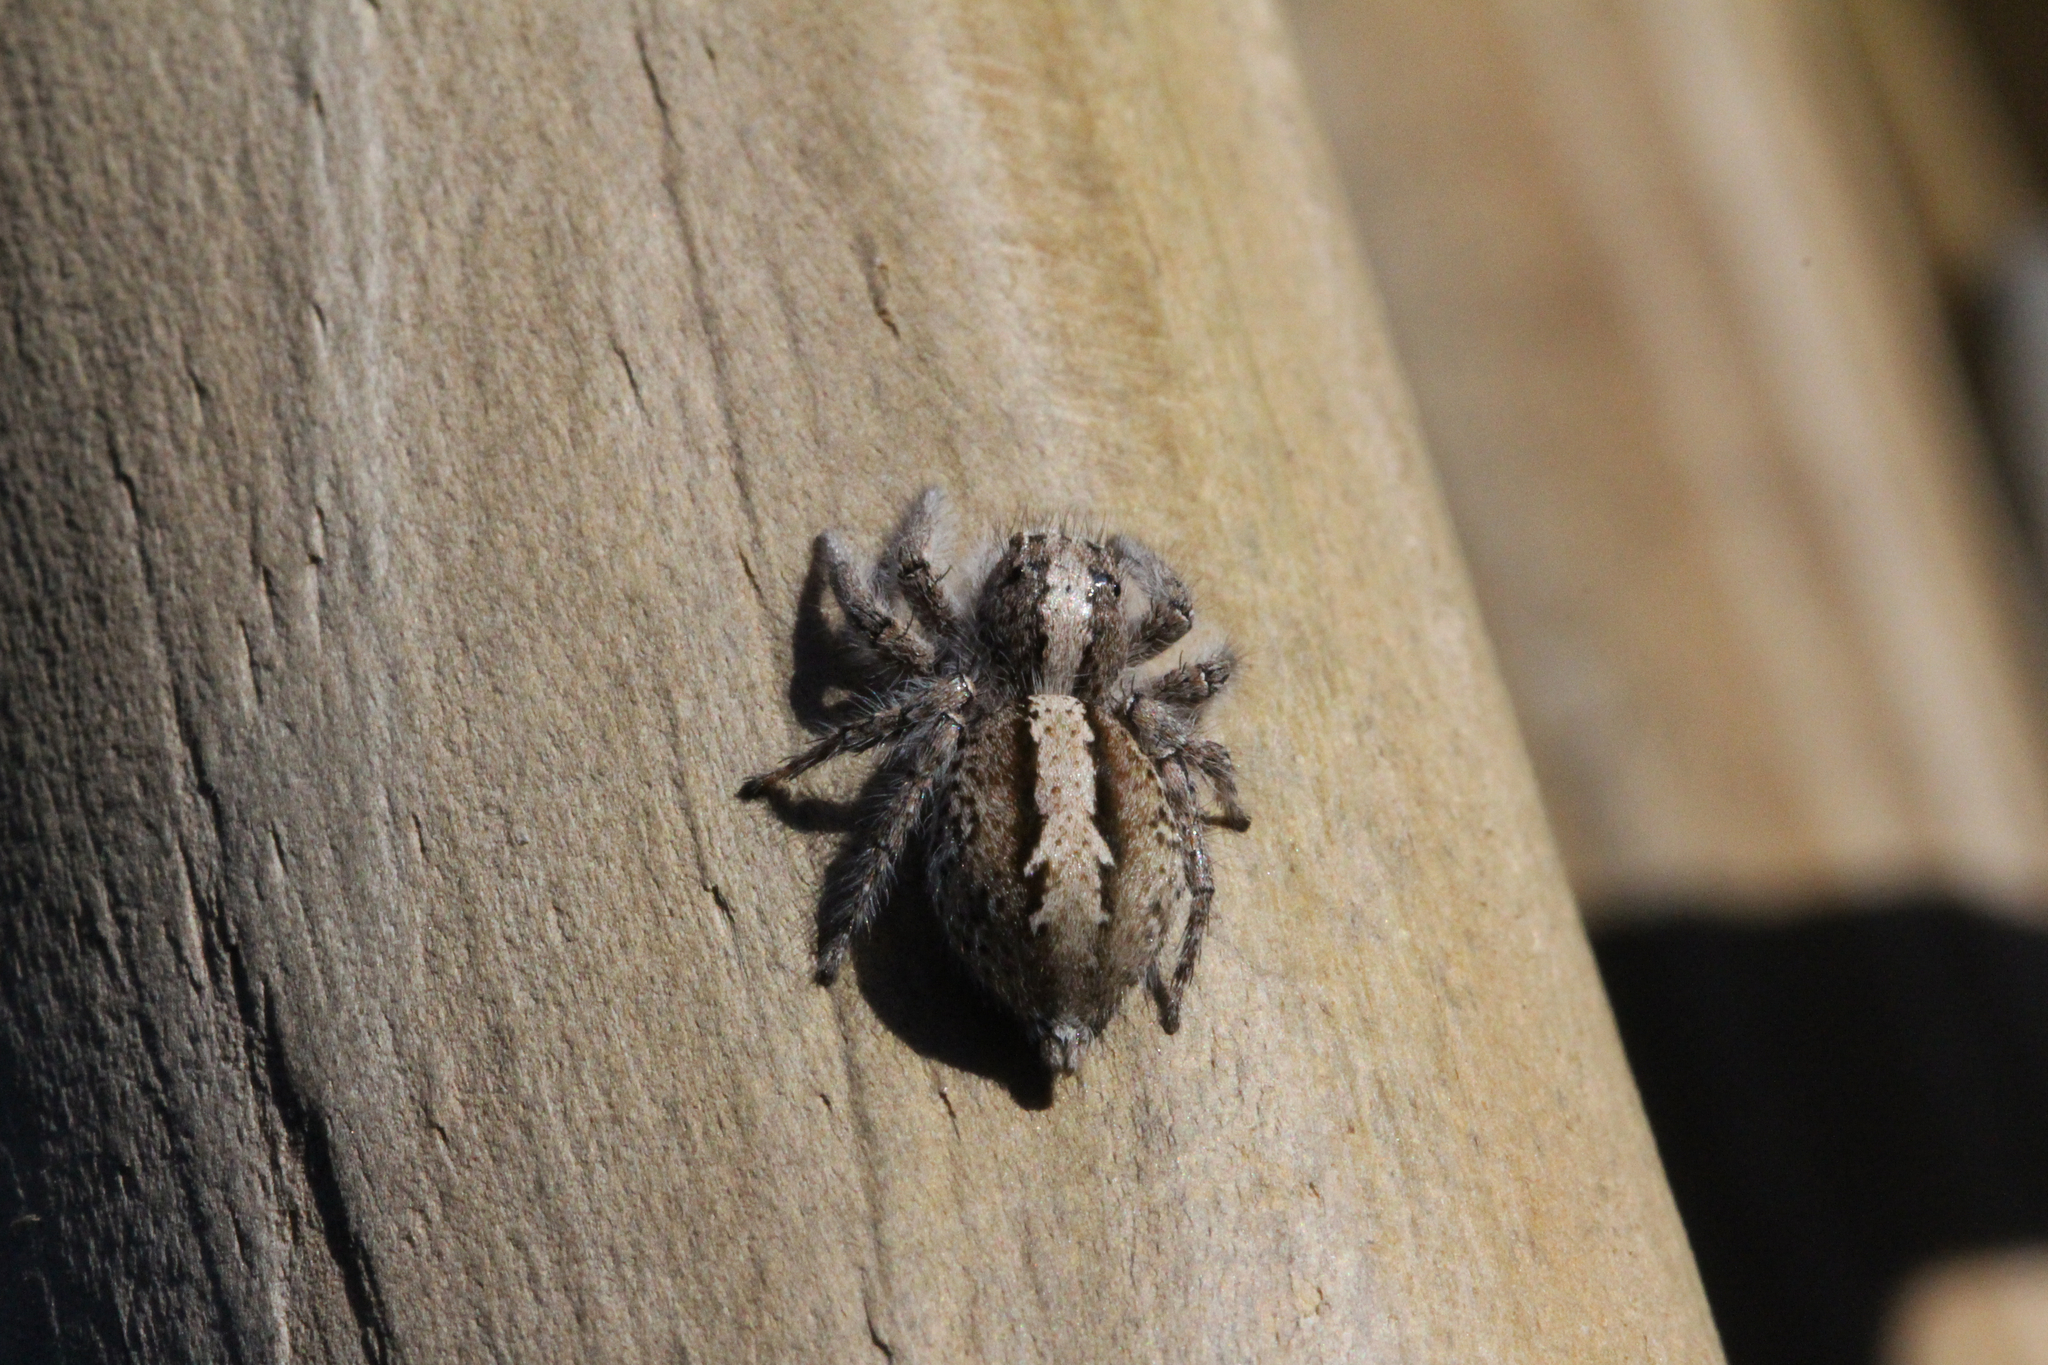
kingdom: Animalia
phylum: Arthropoda
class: Arachnida
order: Araneae
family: Salticidae
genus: Megafreya
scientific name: Megafreya sutrix
